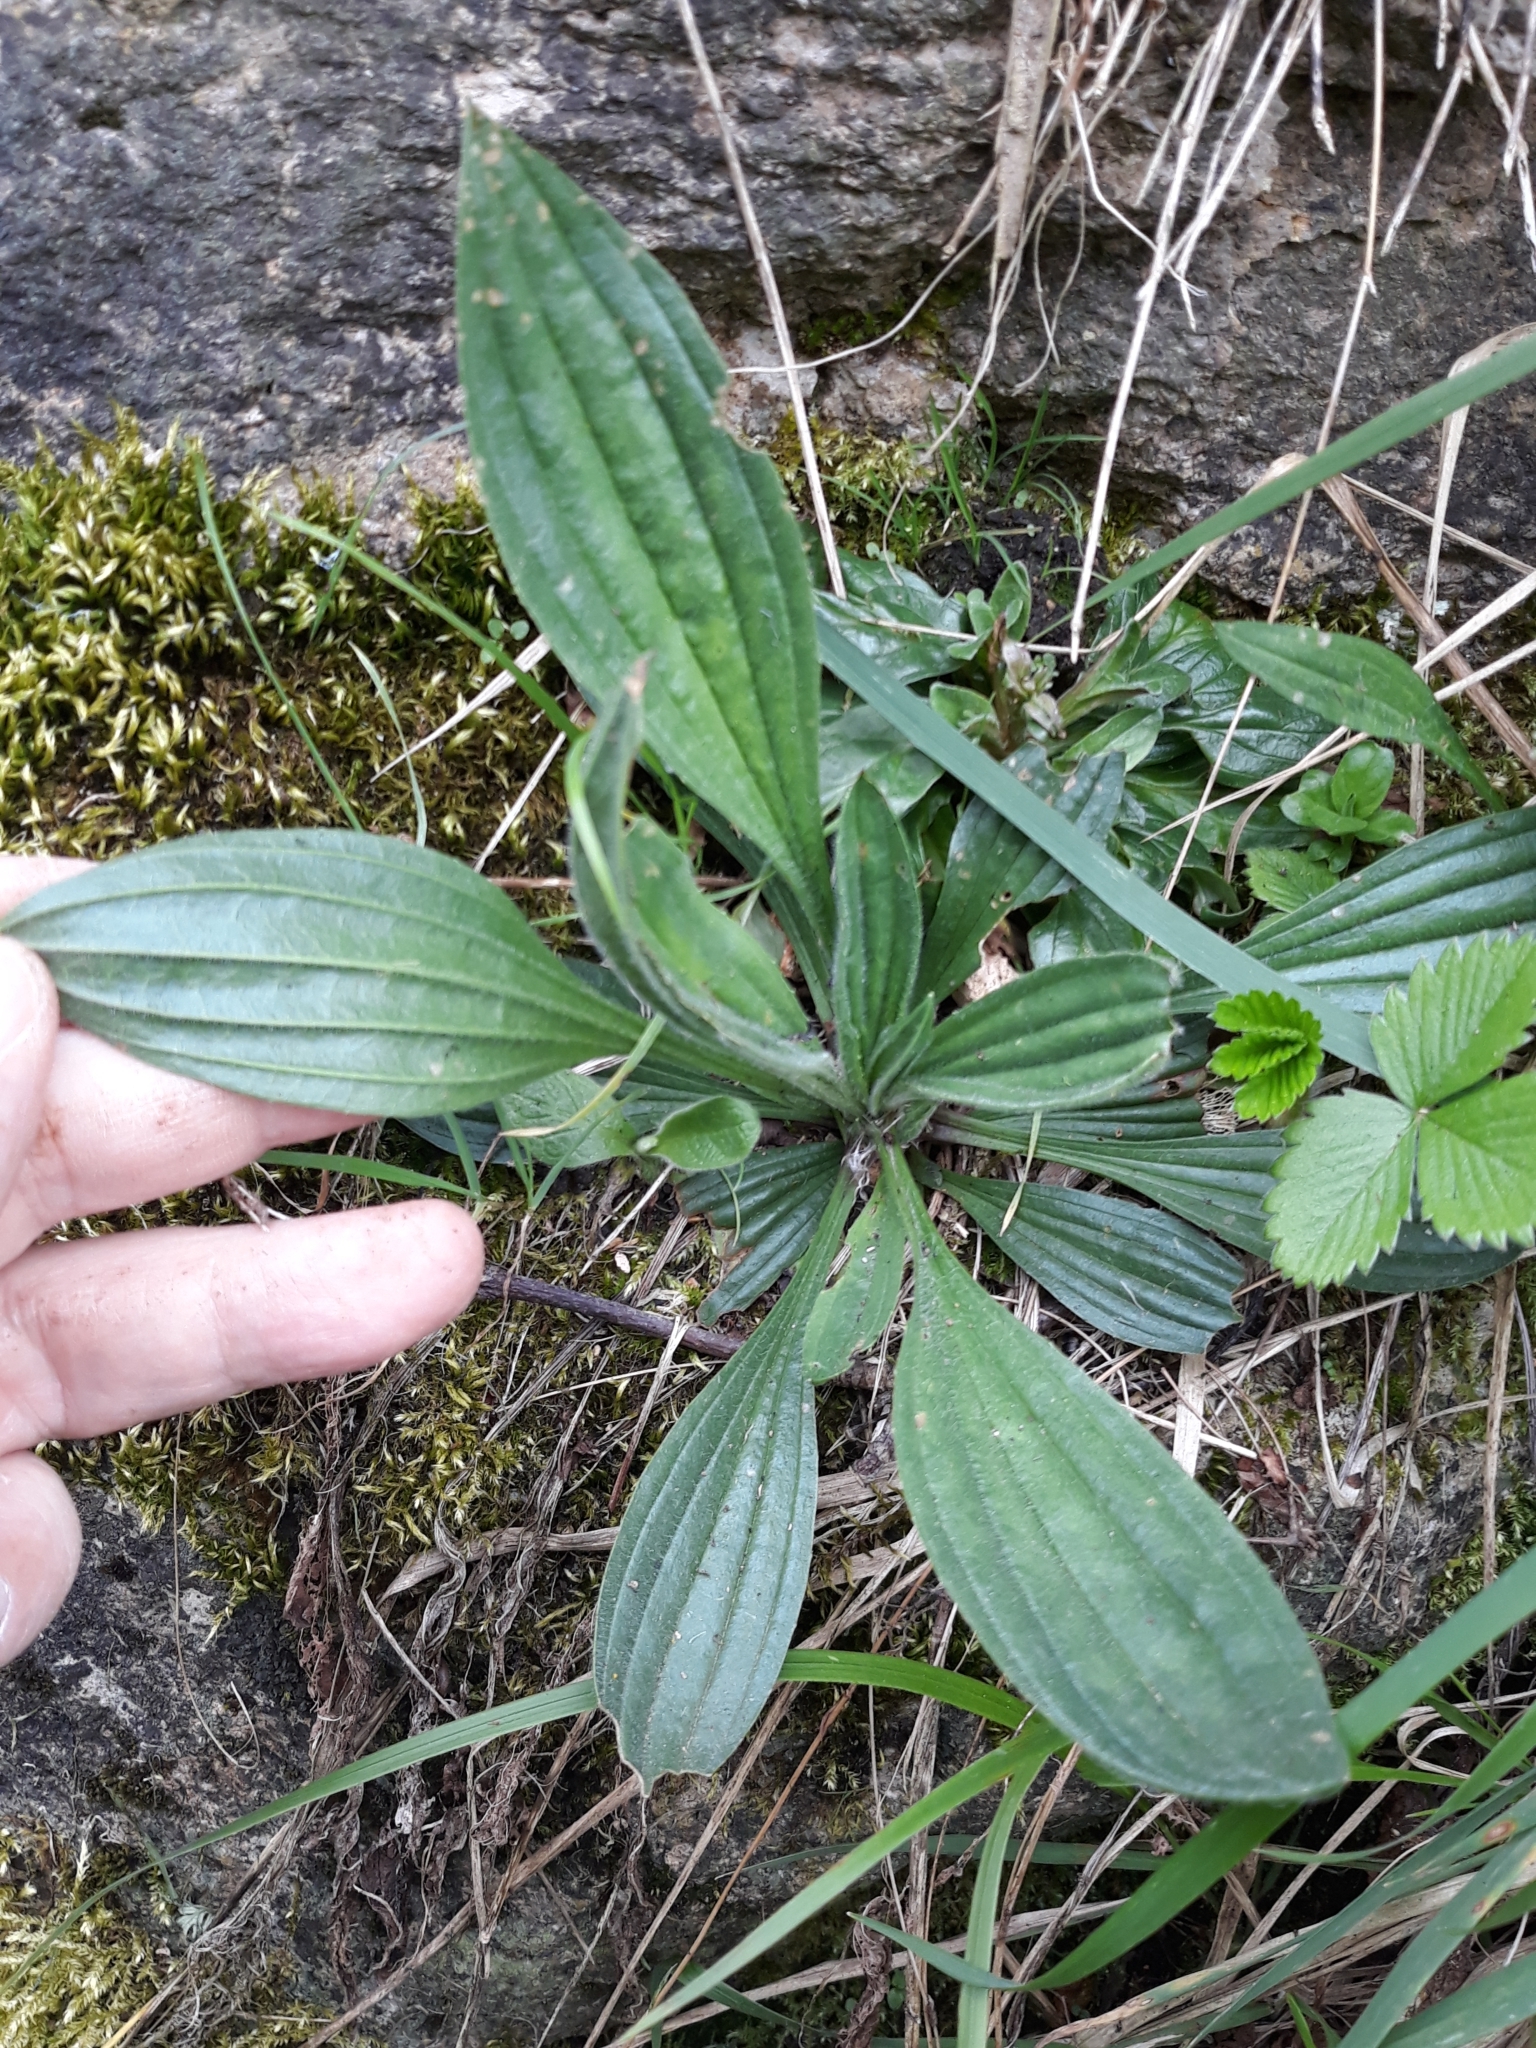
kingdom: Plantae
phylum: Tracheophyta
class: Magnoliopsida
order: Lamiales
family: Plantaginaceae
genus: Plantago
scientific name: Plantago lanceolata
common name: Ribwort plantain
